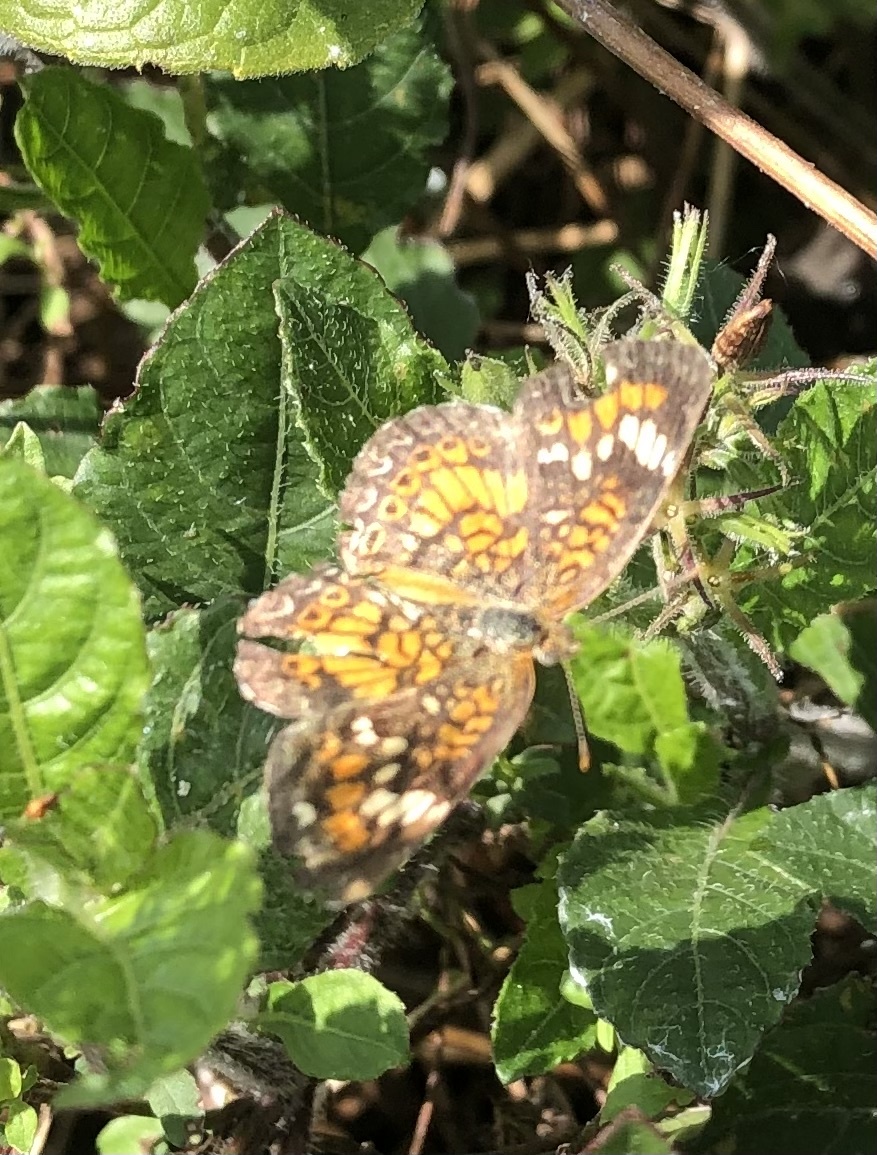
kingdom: Animalia
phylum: Arthropoda
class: Insecta
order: Lepidoptera
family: Nymphalidae
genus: Phyciodes
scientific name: Phyciodes phaon
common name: Phaon crescent
